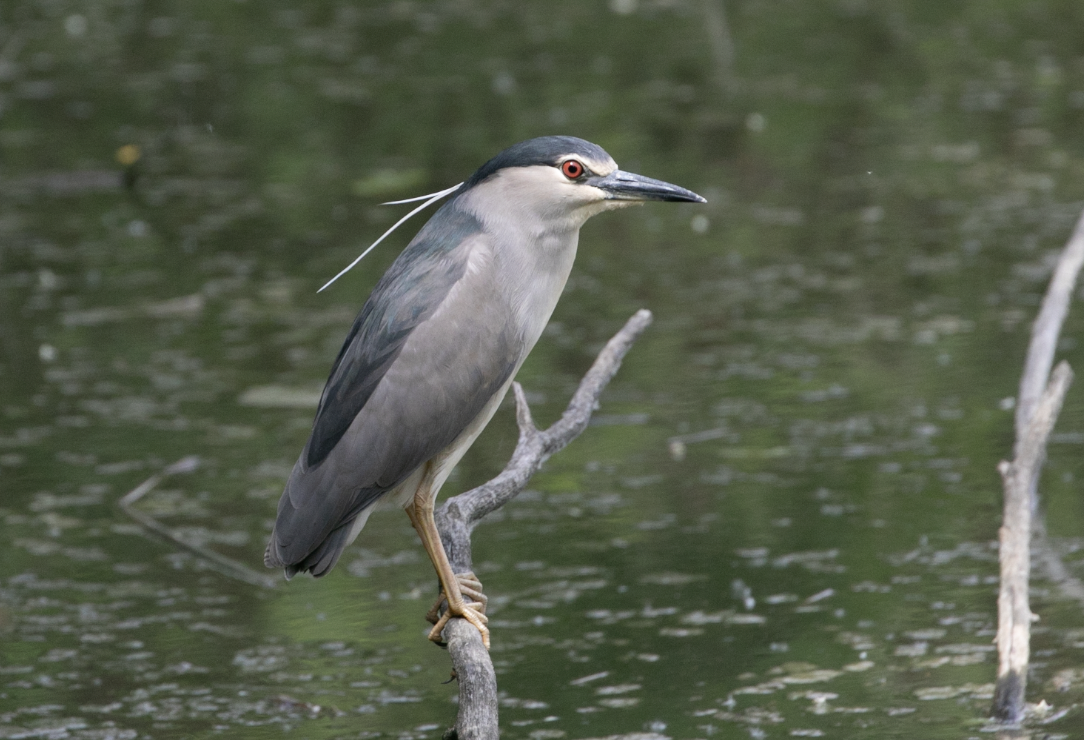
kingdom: Animalia
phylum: Chordata
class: Aves
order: Pelecaniformes
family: Ardeidae
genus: Nycticorax
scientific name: Nycticorax nycticorax
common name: Black-crowned night heron
